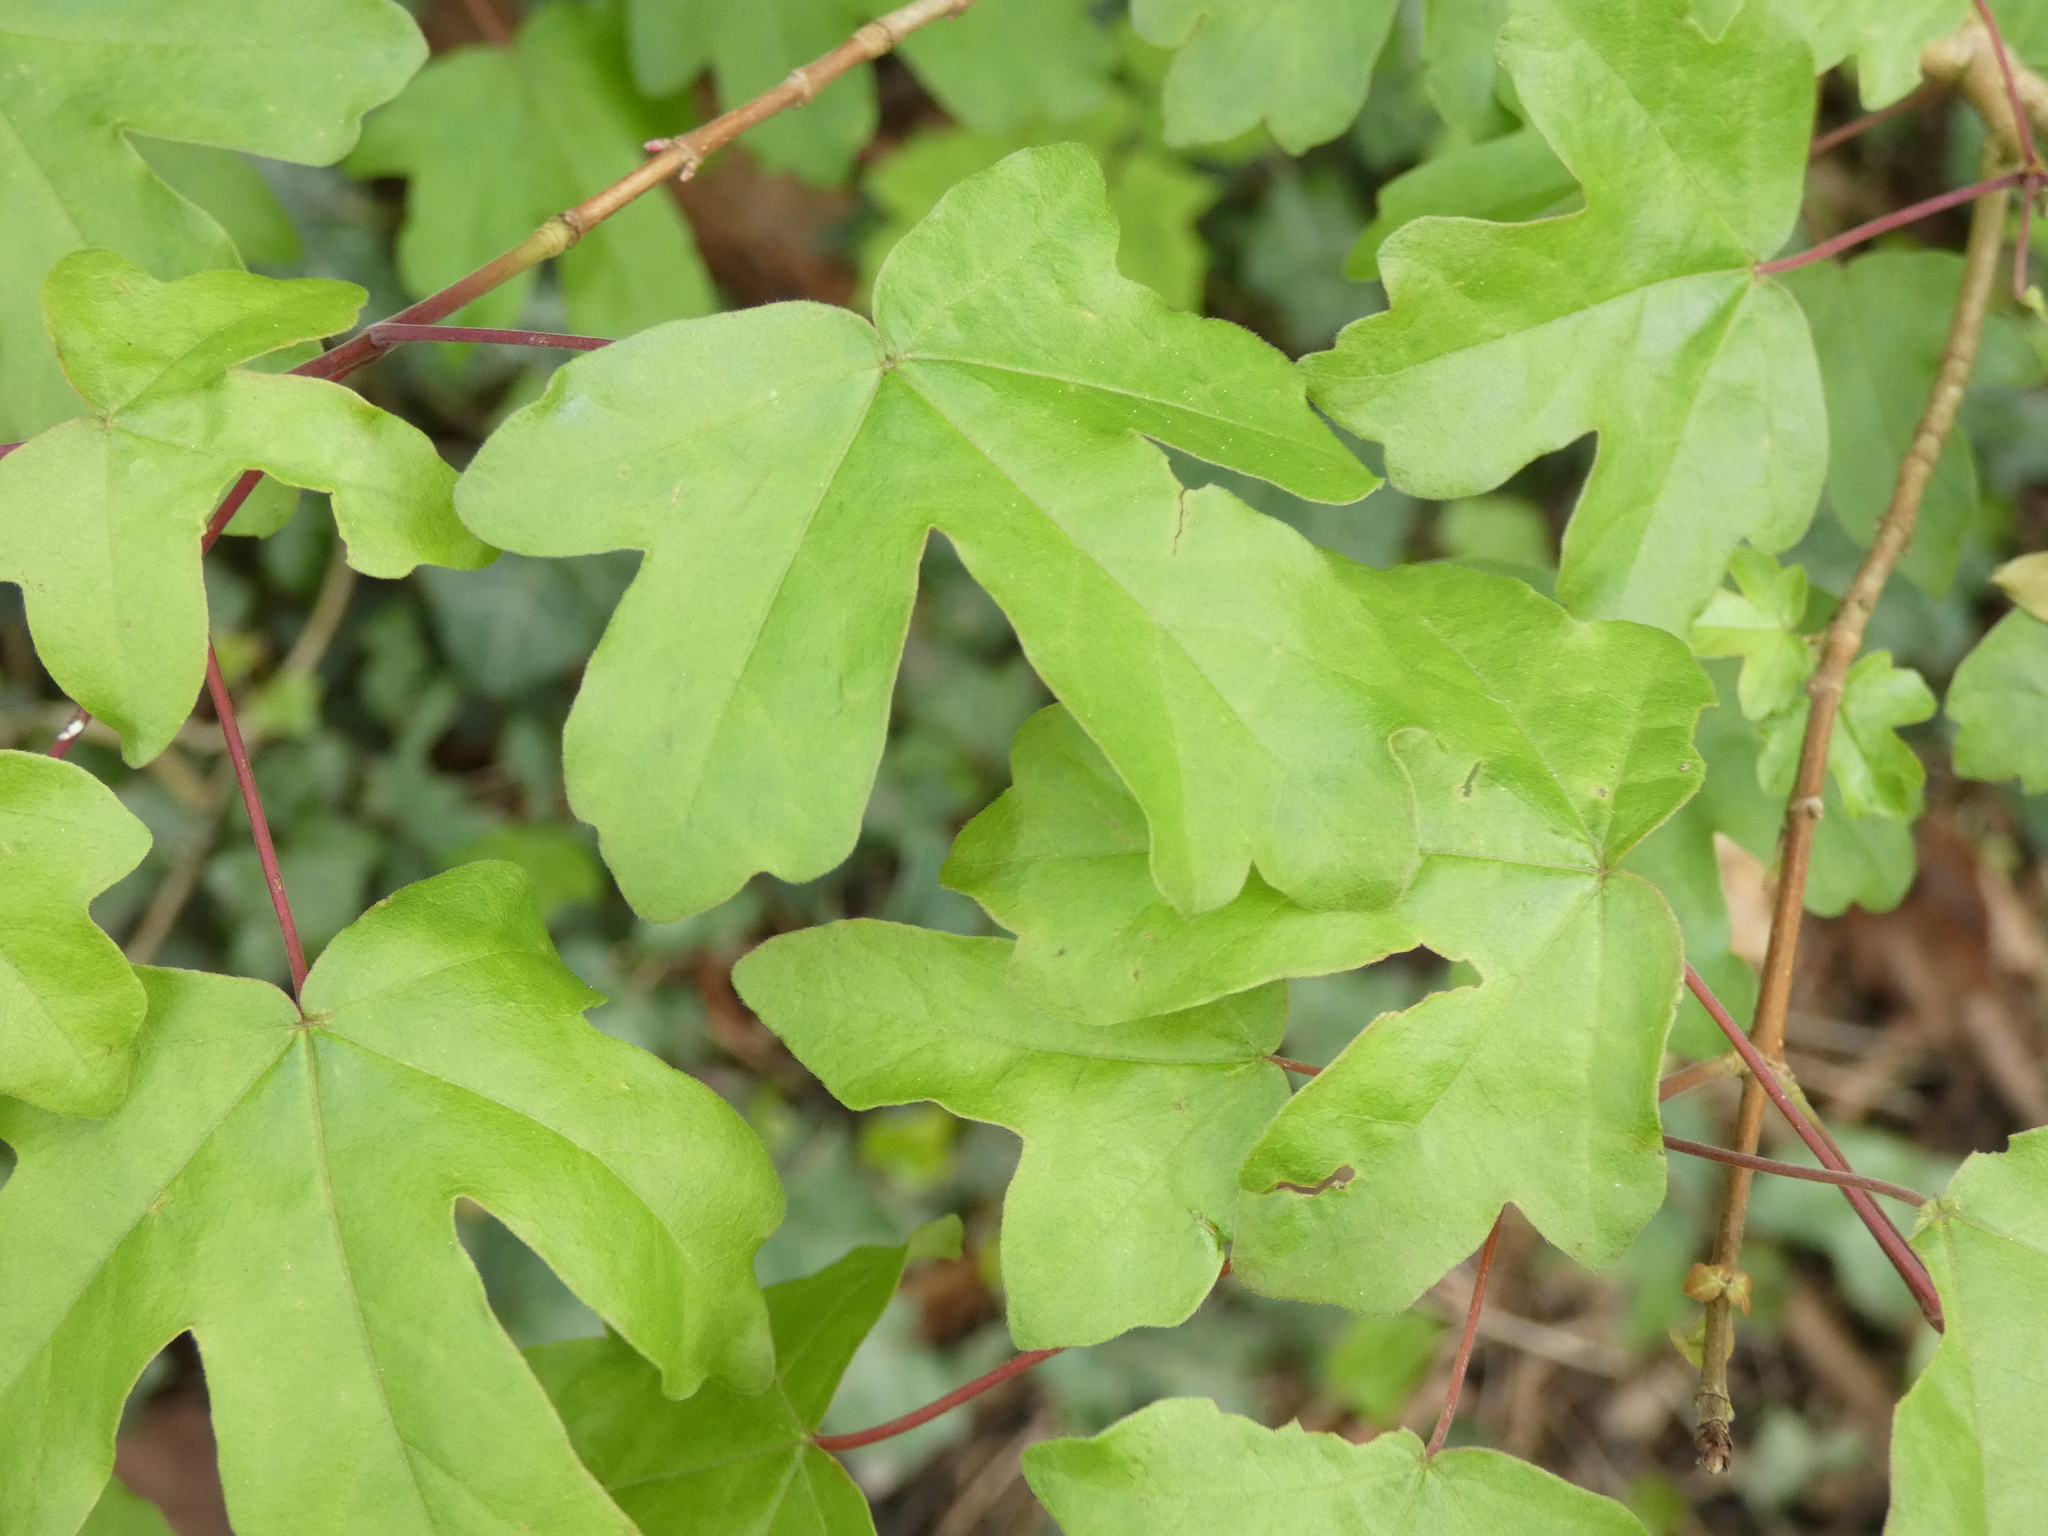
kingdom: Plantae
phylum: Tracheophyta
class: Magnoliopsida
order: Sapindales
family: Sapindaceae
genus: Acer
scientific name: Acer campestre
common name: Field maple
